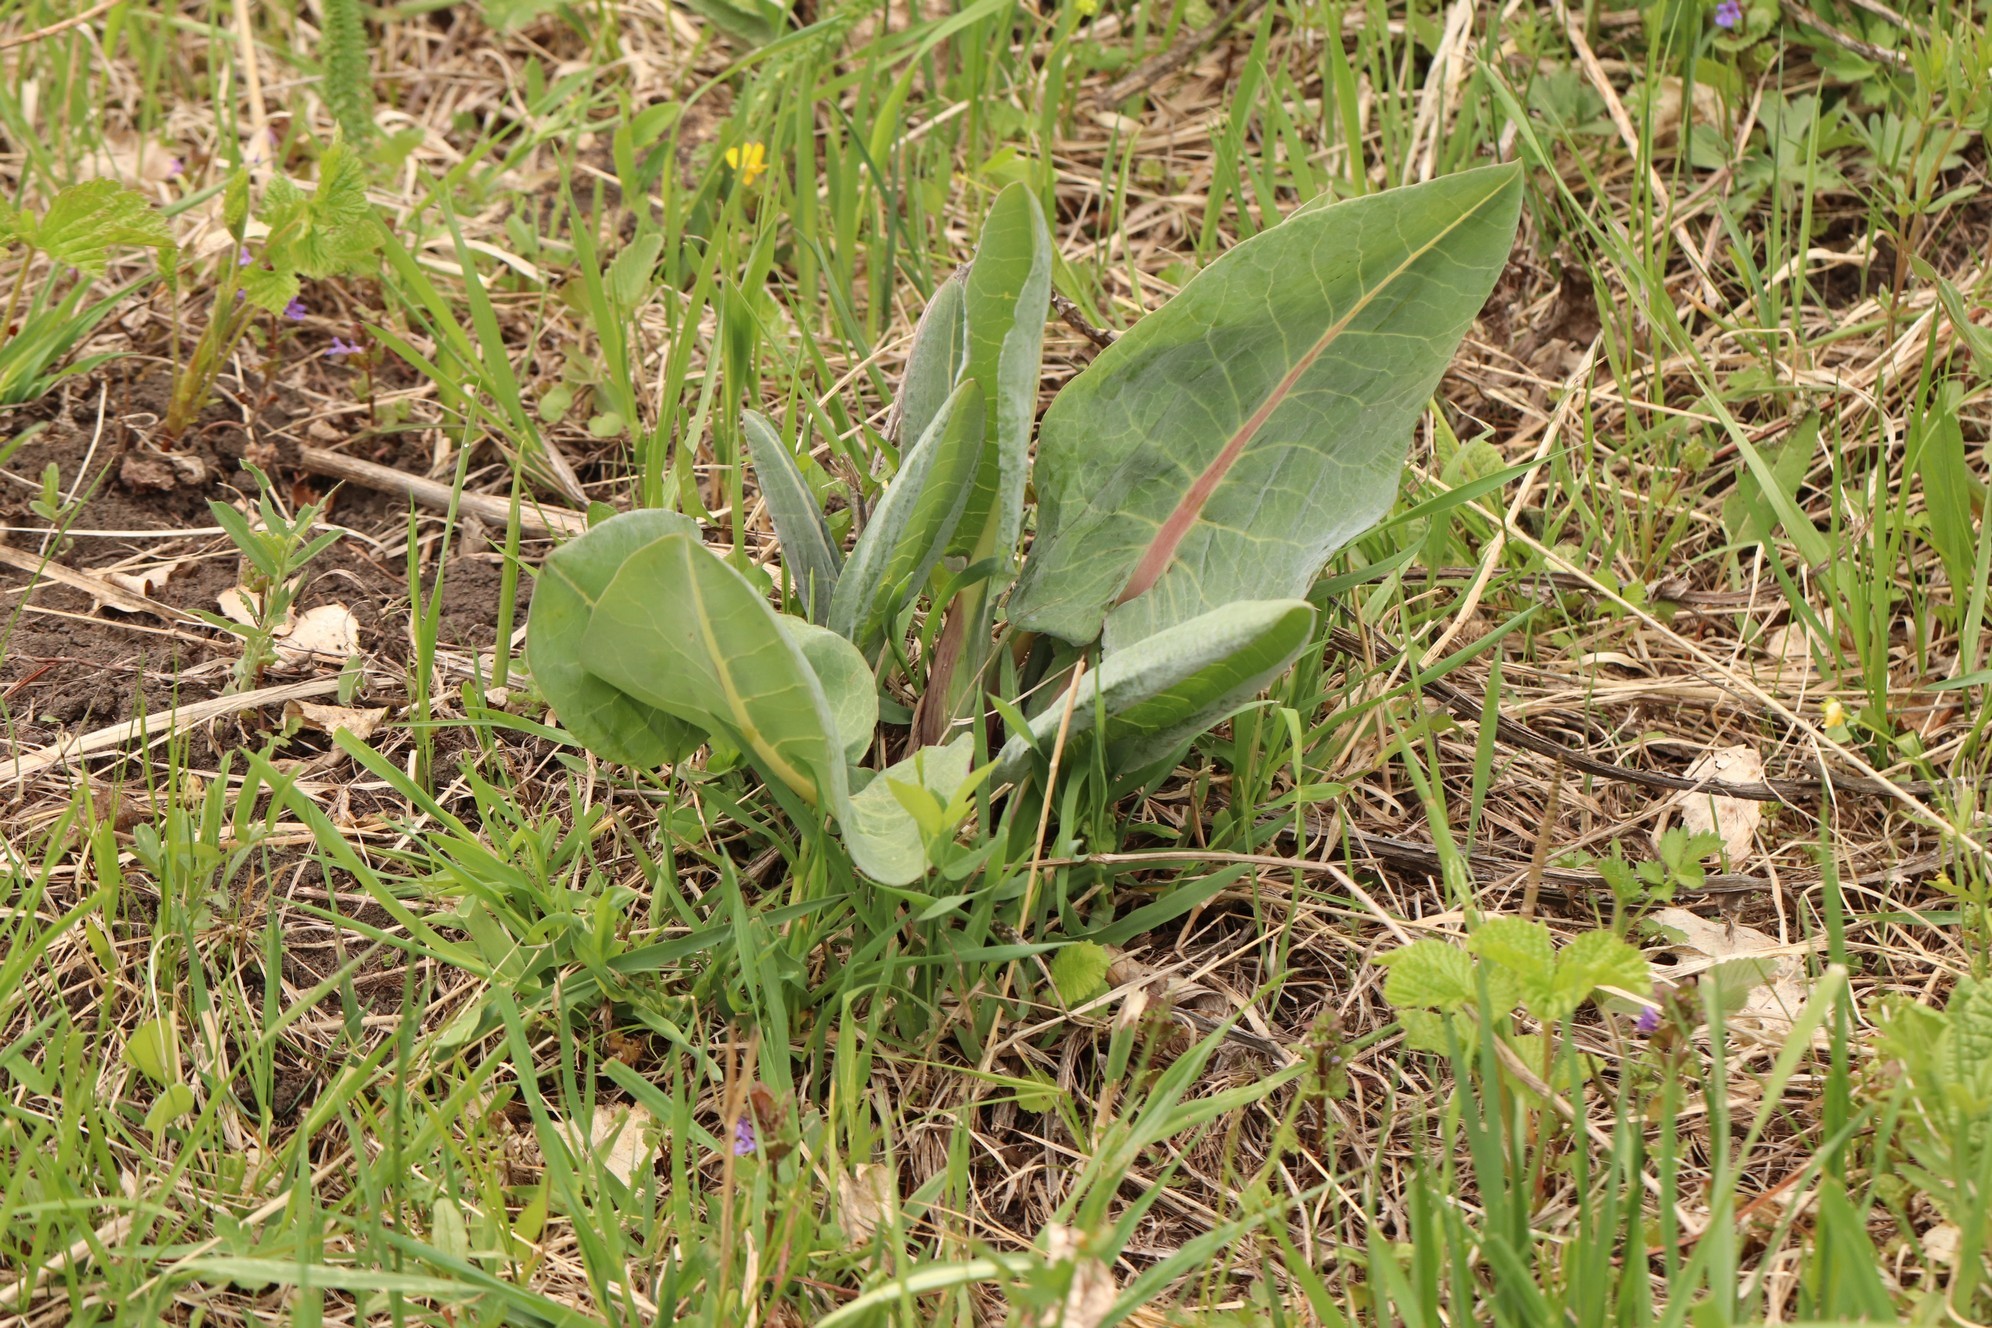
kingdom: Plantae
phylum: Tracheophyta
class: Magnoliopsida
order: Asterales
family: Asteraceae
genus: Ligularia
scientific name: Ligularia glauca
